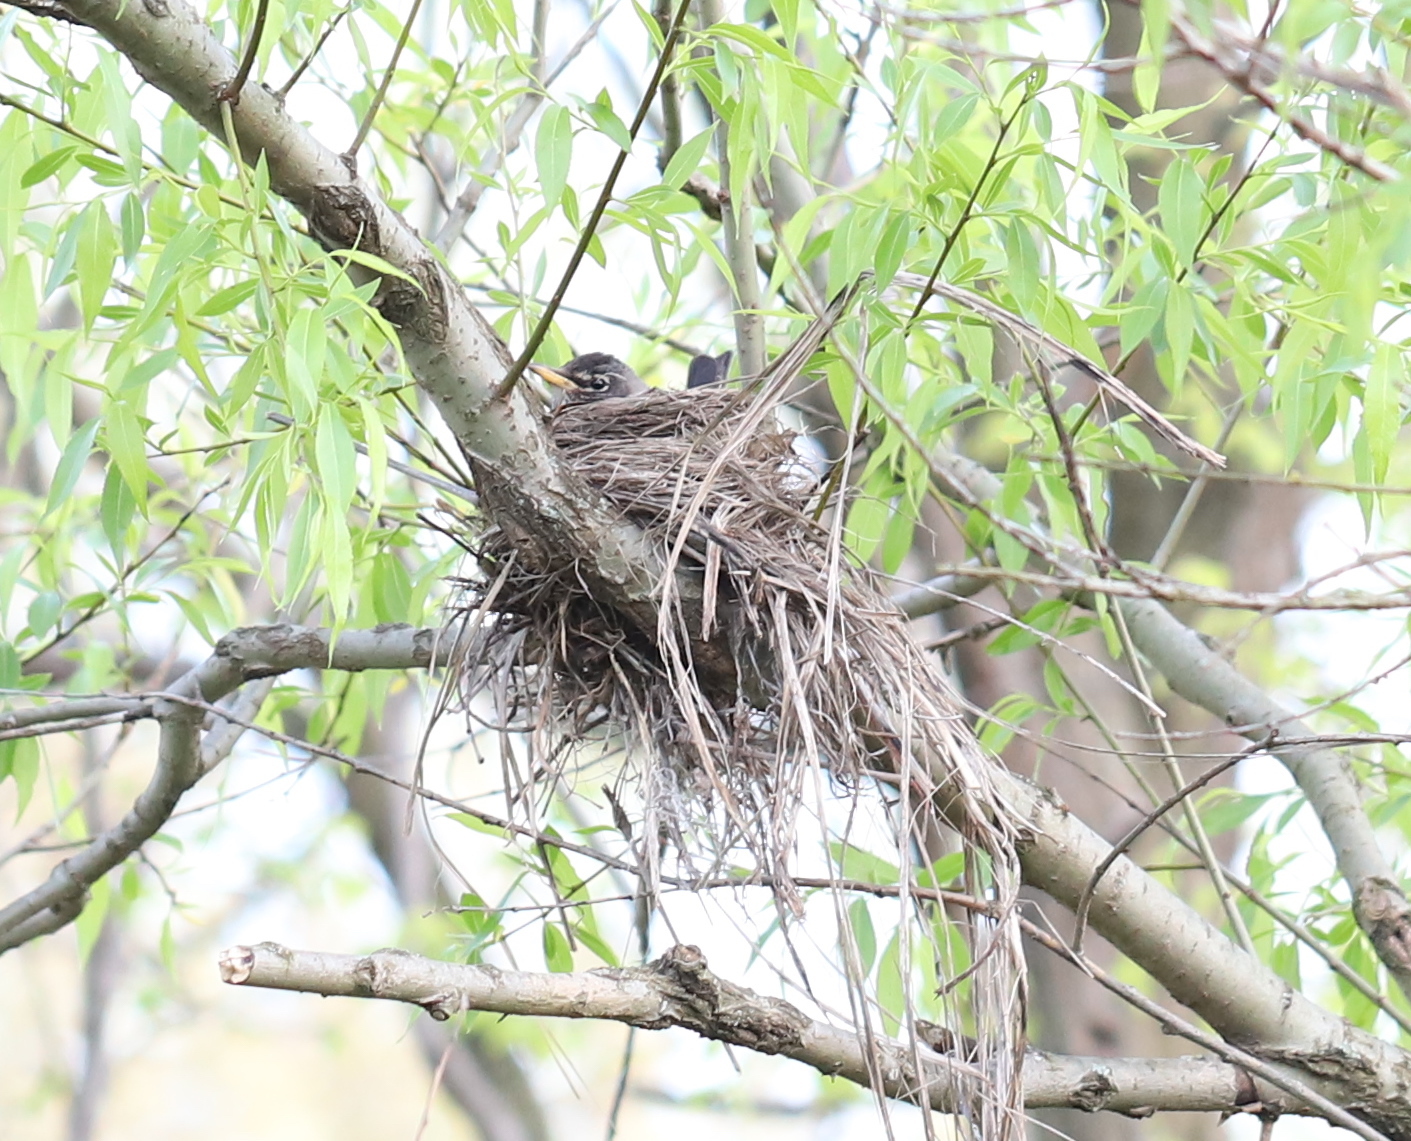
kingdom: Animalia
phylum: Chordata
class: Aves
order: Passeriformes
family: Turdidae
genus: Turdus
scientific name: Turdus migratorius
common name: American robin
